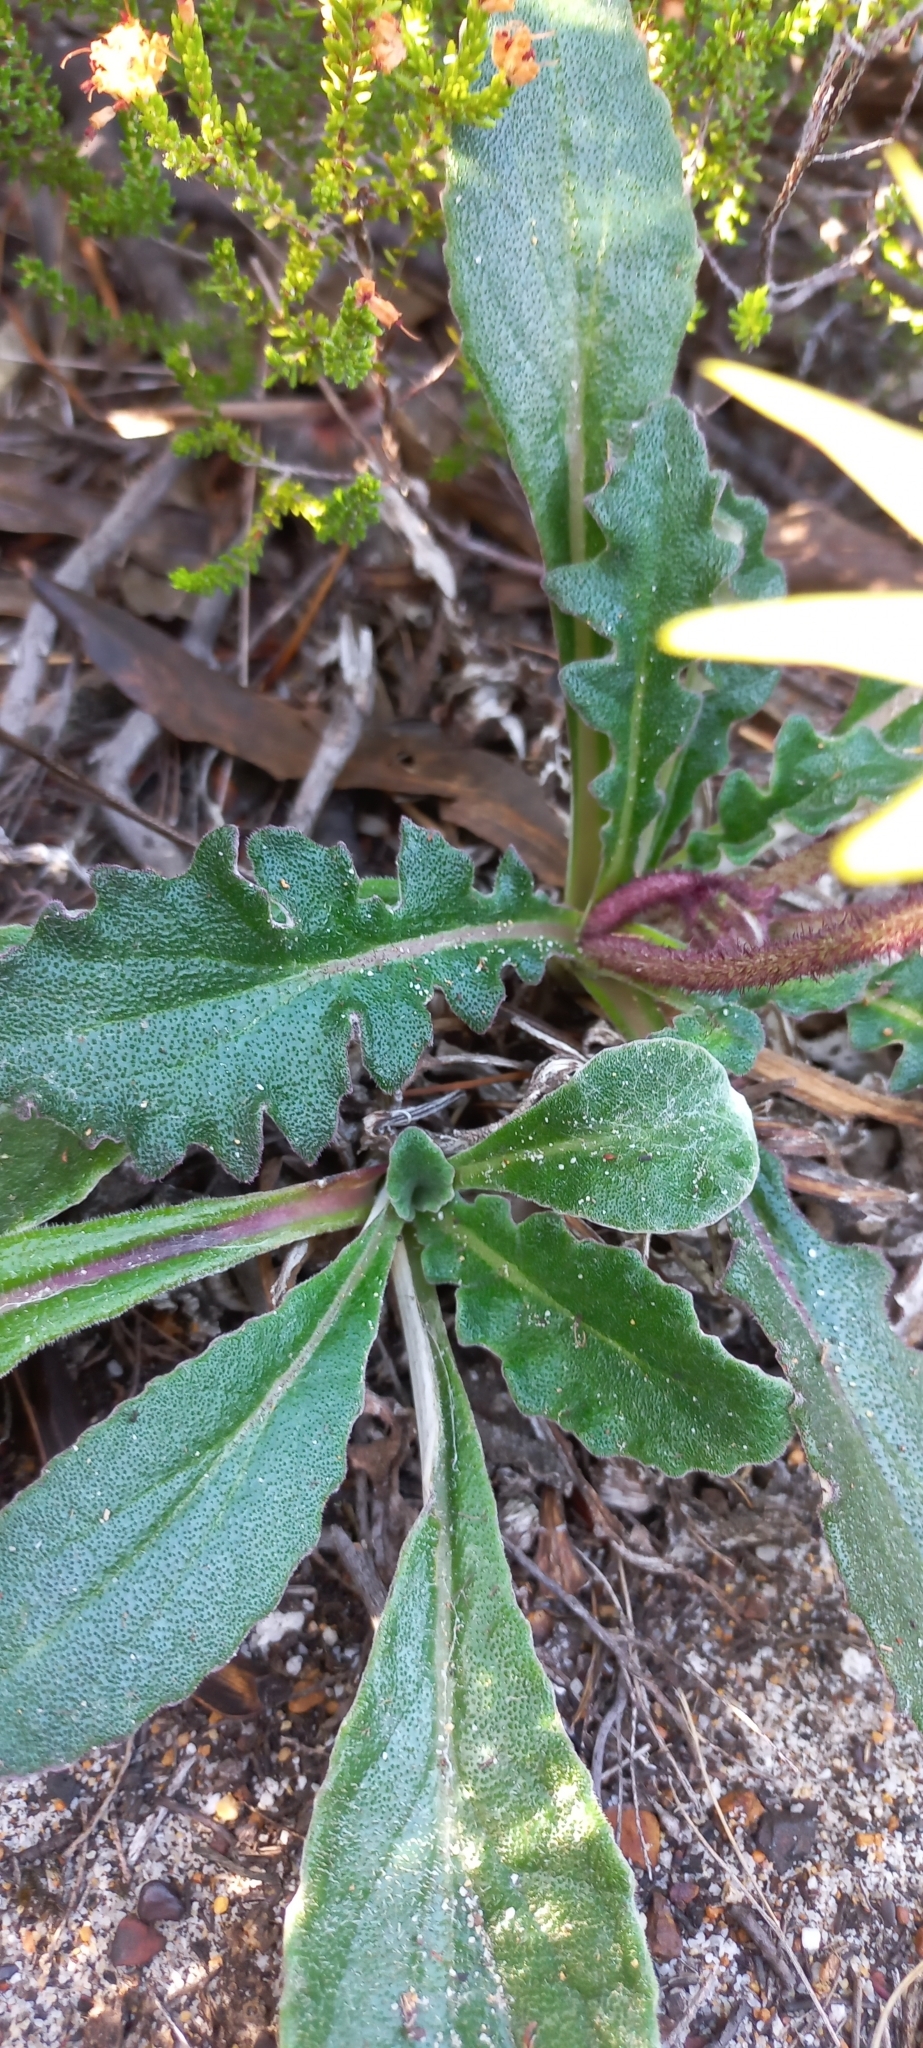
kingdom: Plantae
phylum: Tracheophyta
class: Magnoliopsida
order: Asterales
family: Asteraceae
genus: Haplocarpha
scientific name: Haplocarpha lanata
